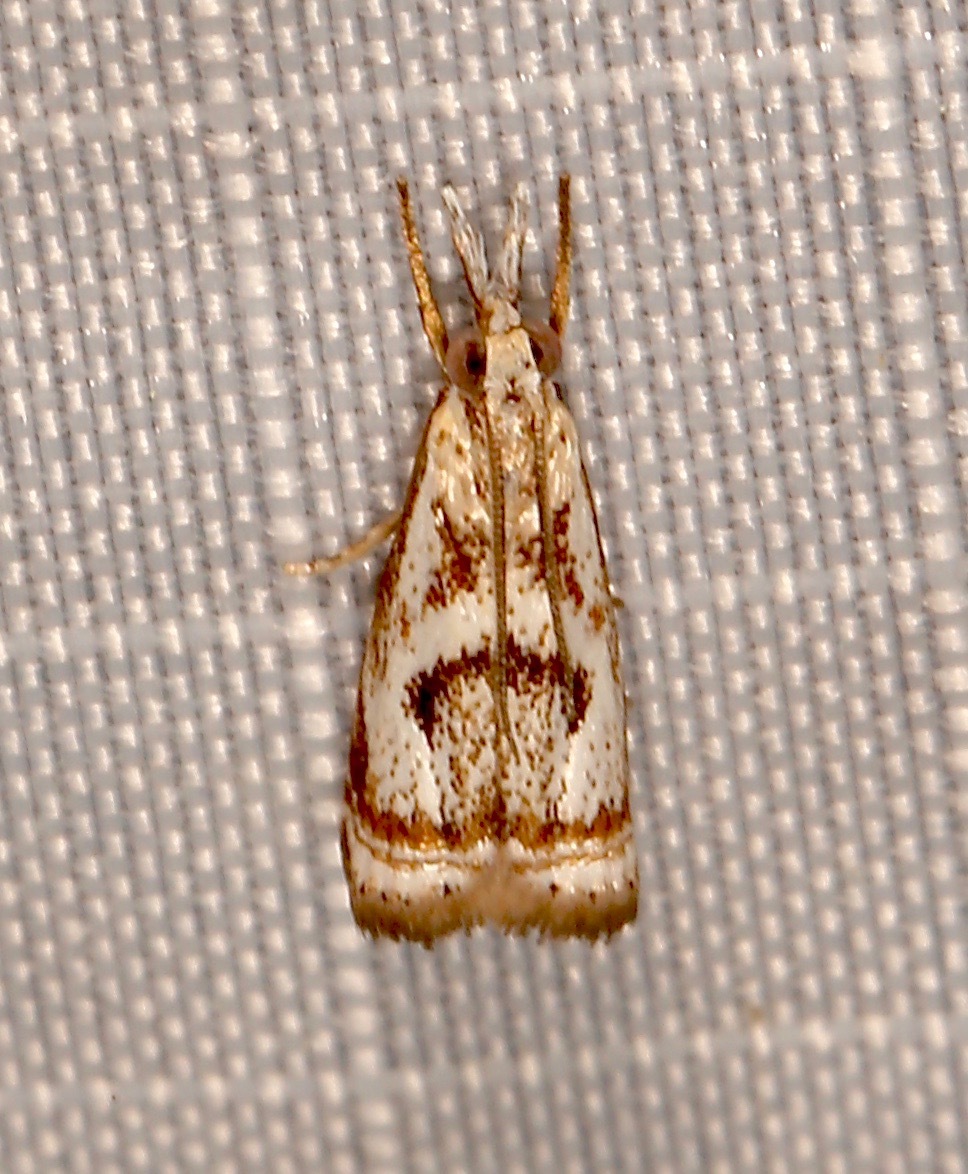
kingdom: Animalia
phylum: Arthropoda
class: Insecta
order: Lepidoptera
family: Crambidae
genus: Microcrambus
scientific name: Microcrambus elegans
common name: Elegant grass-veneer
